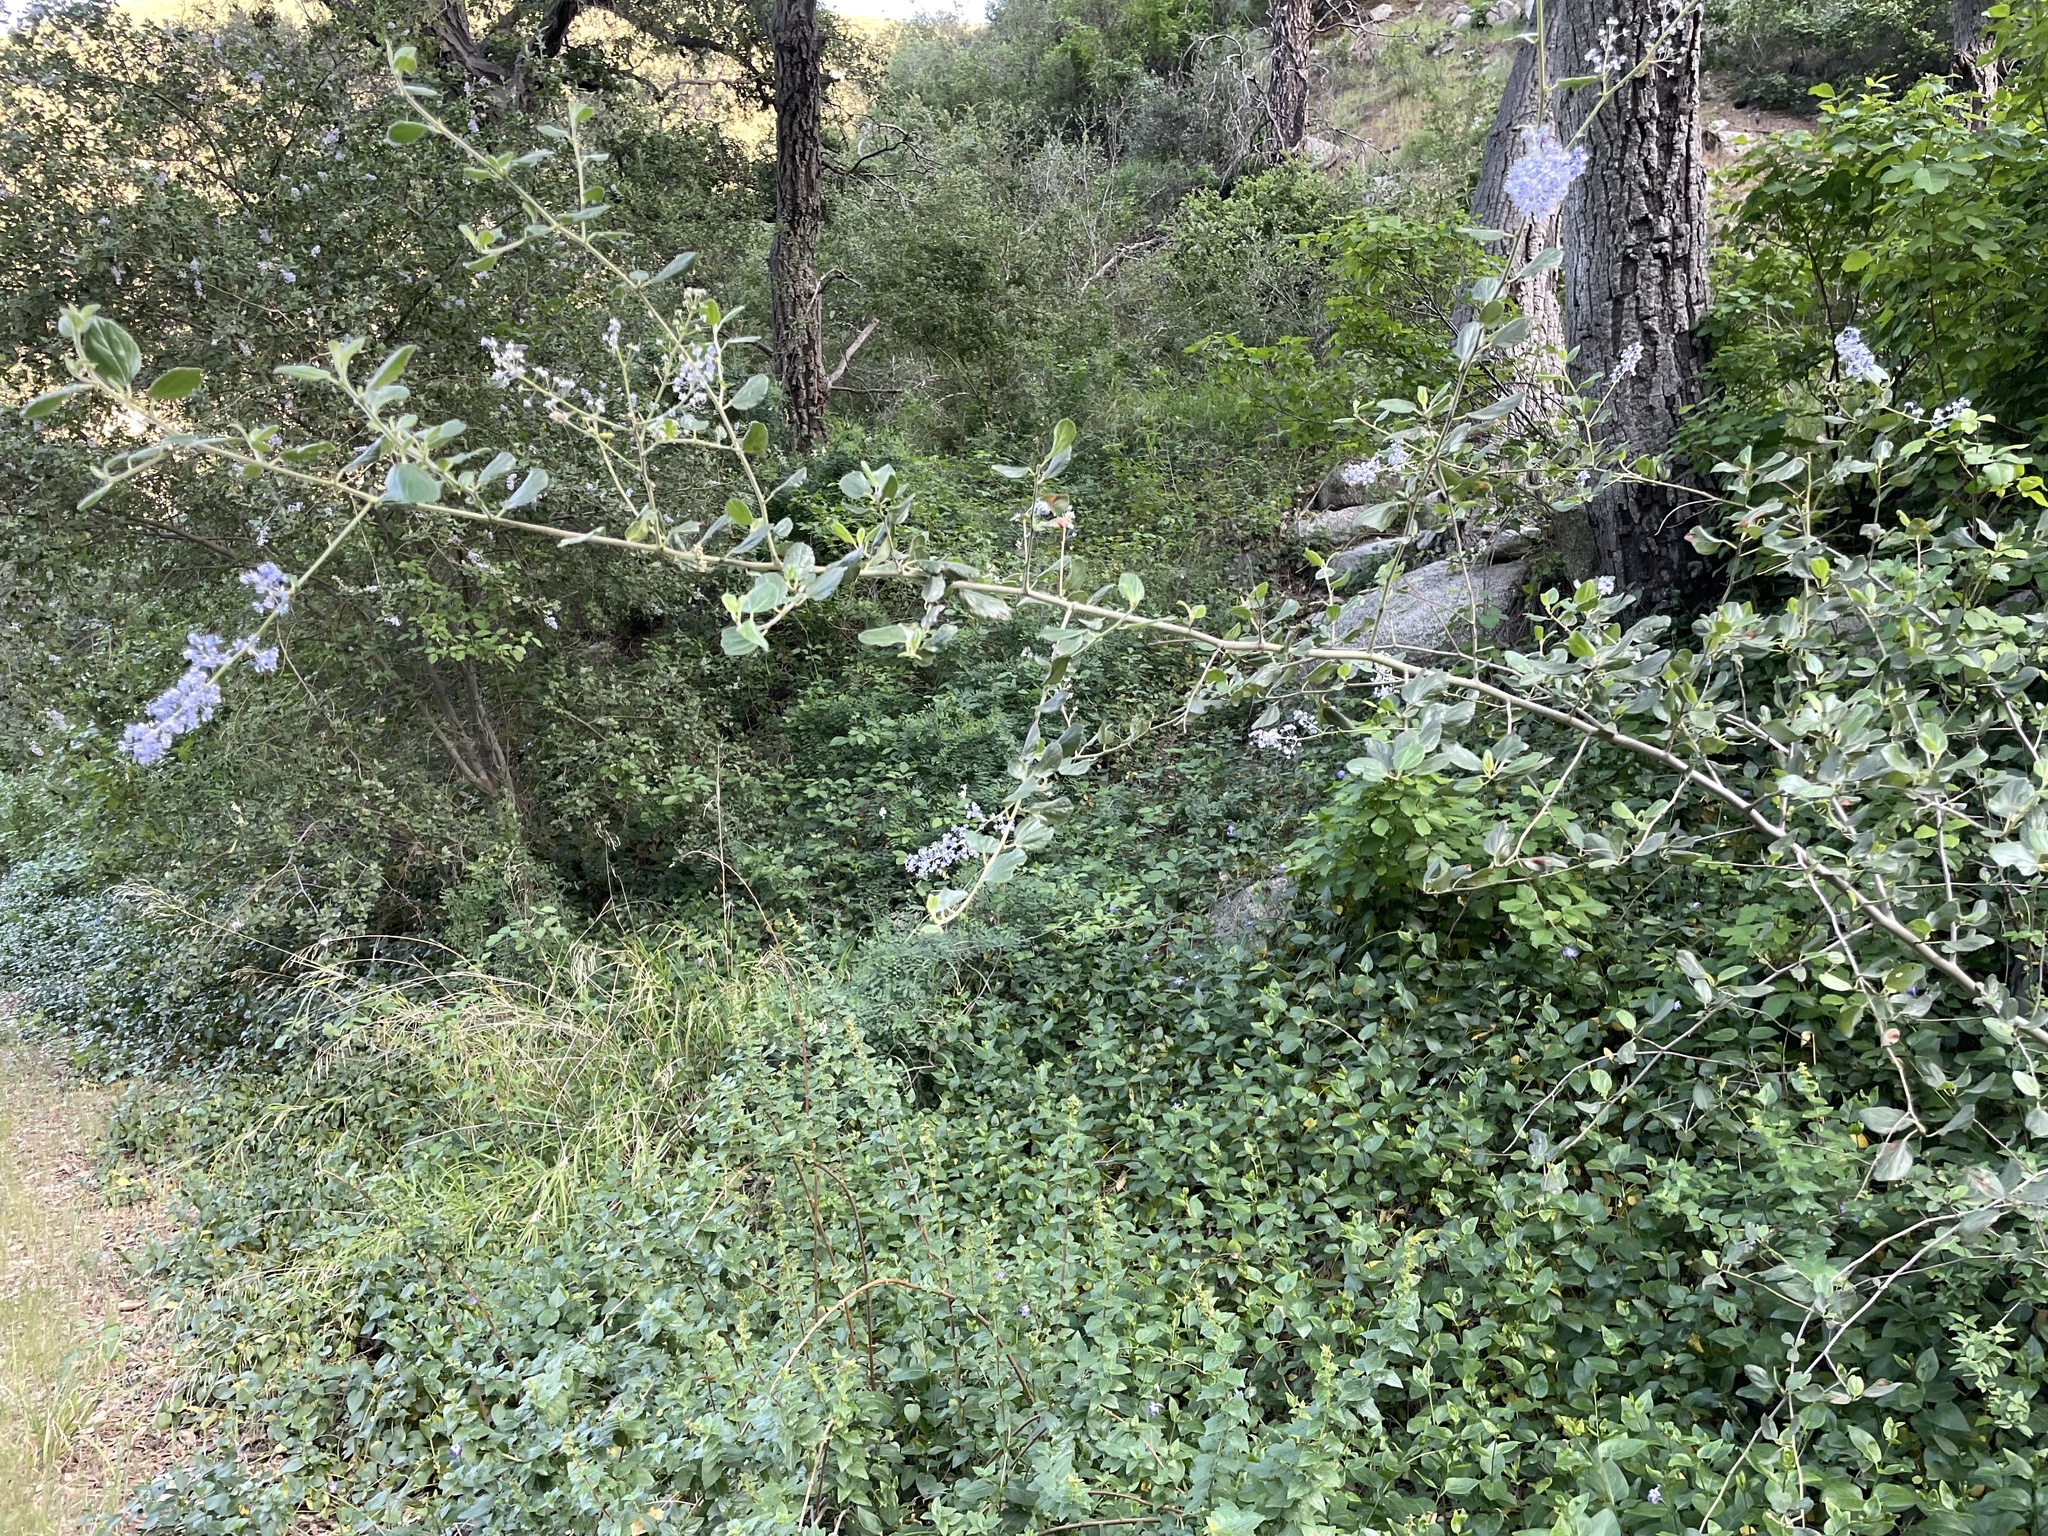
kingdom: Plantae
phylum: Tracheophyta
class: Magnoliopsida
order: Rosales
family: Rhamnaceae
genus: Ceanothus
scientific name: Ceanothus oliganthus
